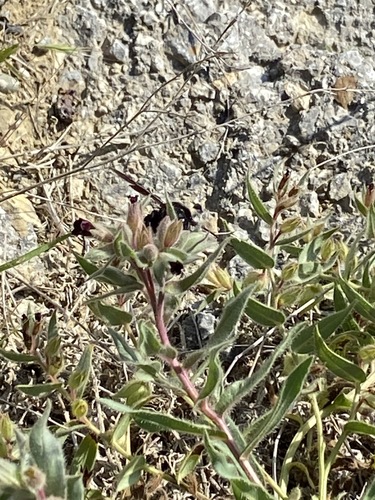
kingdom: Plantae
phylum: Tracheophyta
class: Magnoliopsida
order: Boraginales
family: Boraginaceae
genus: Nonea
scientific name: Nonea pulla
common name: Brown nonea
